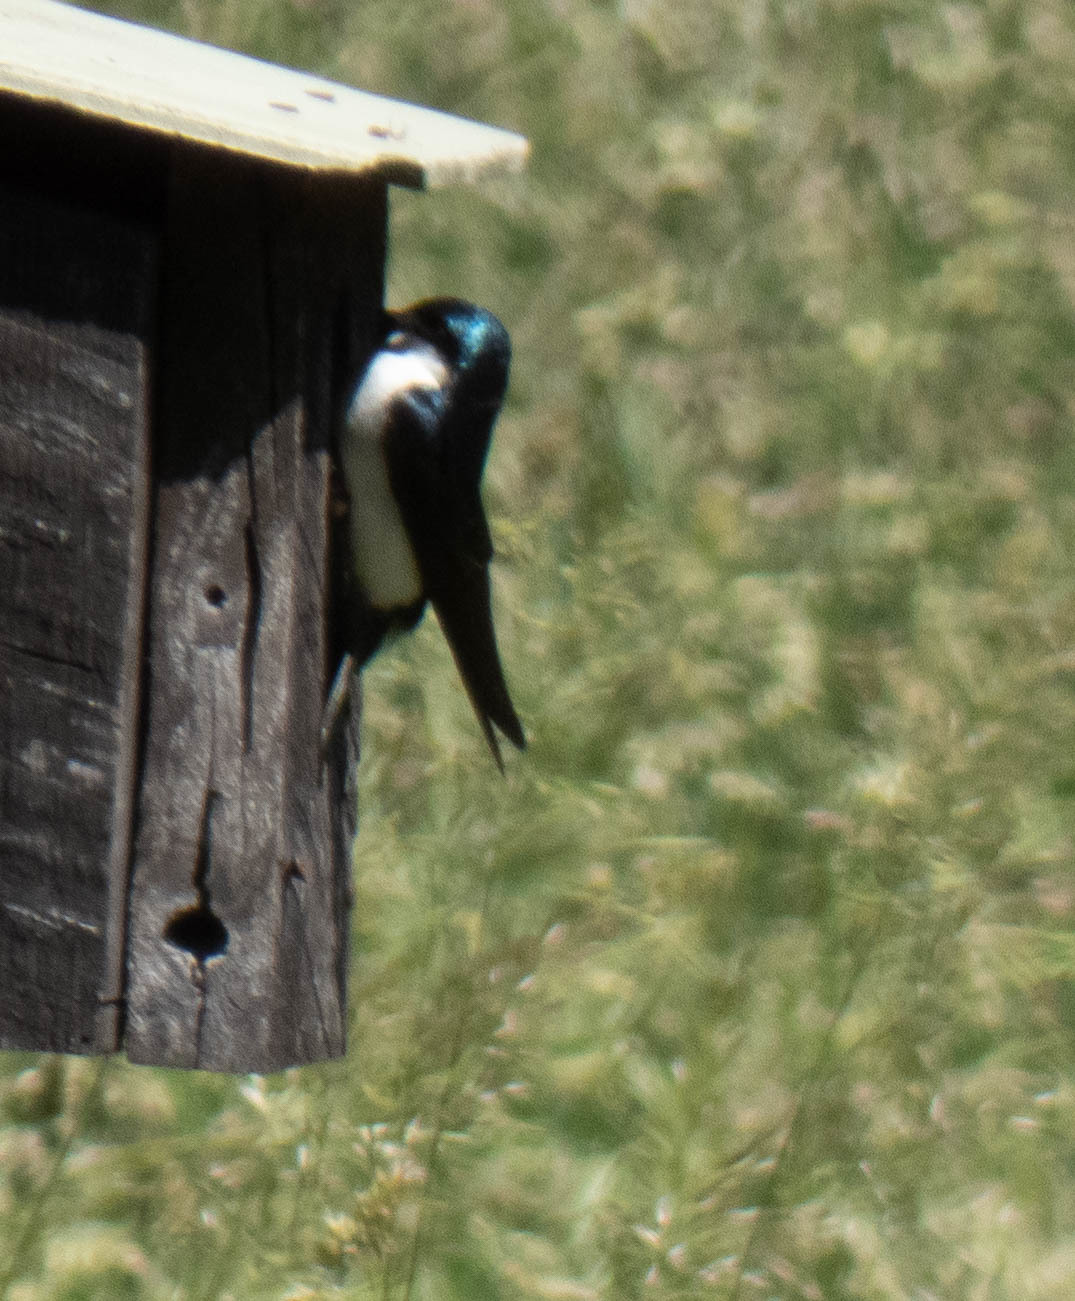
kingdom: Animalia
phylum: Chordata
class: Aves
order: Passeriformes
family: Hirundinidae
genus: Tachycineta
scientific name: Tachycineta bicolor
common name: Tree swallow
